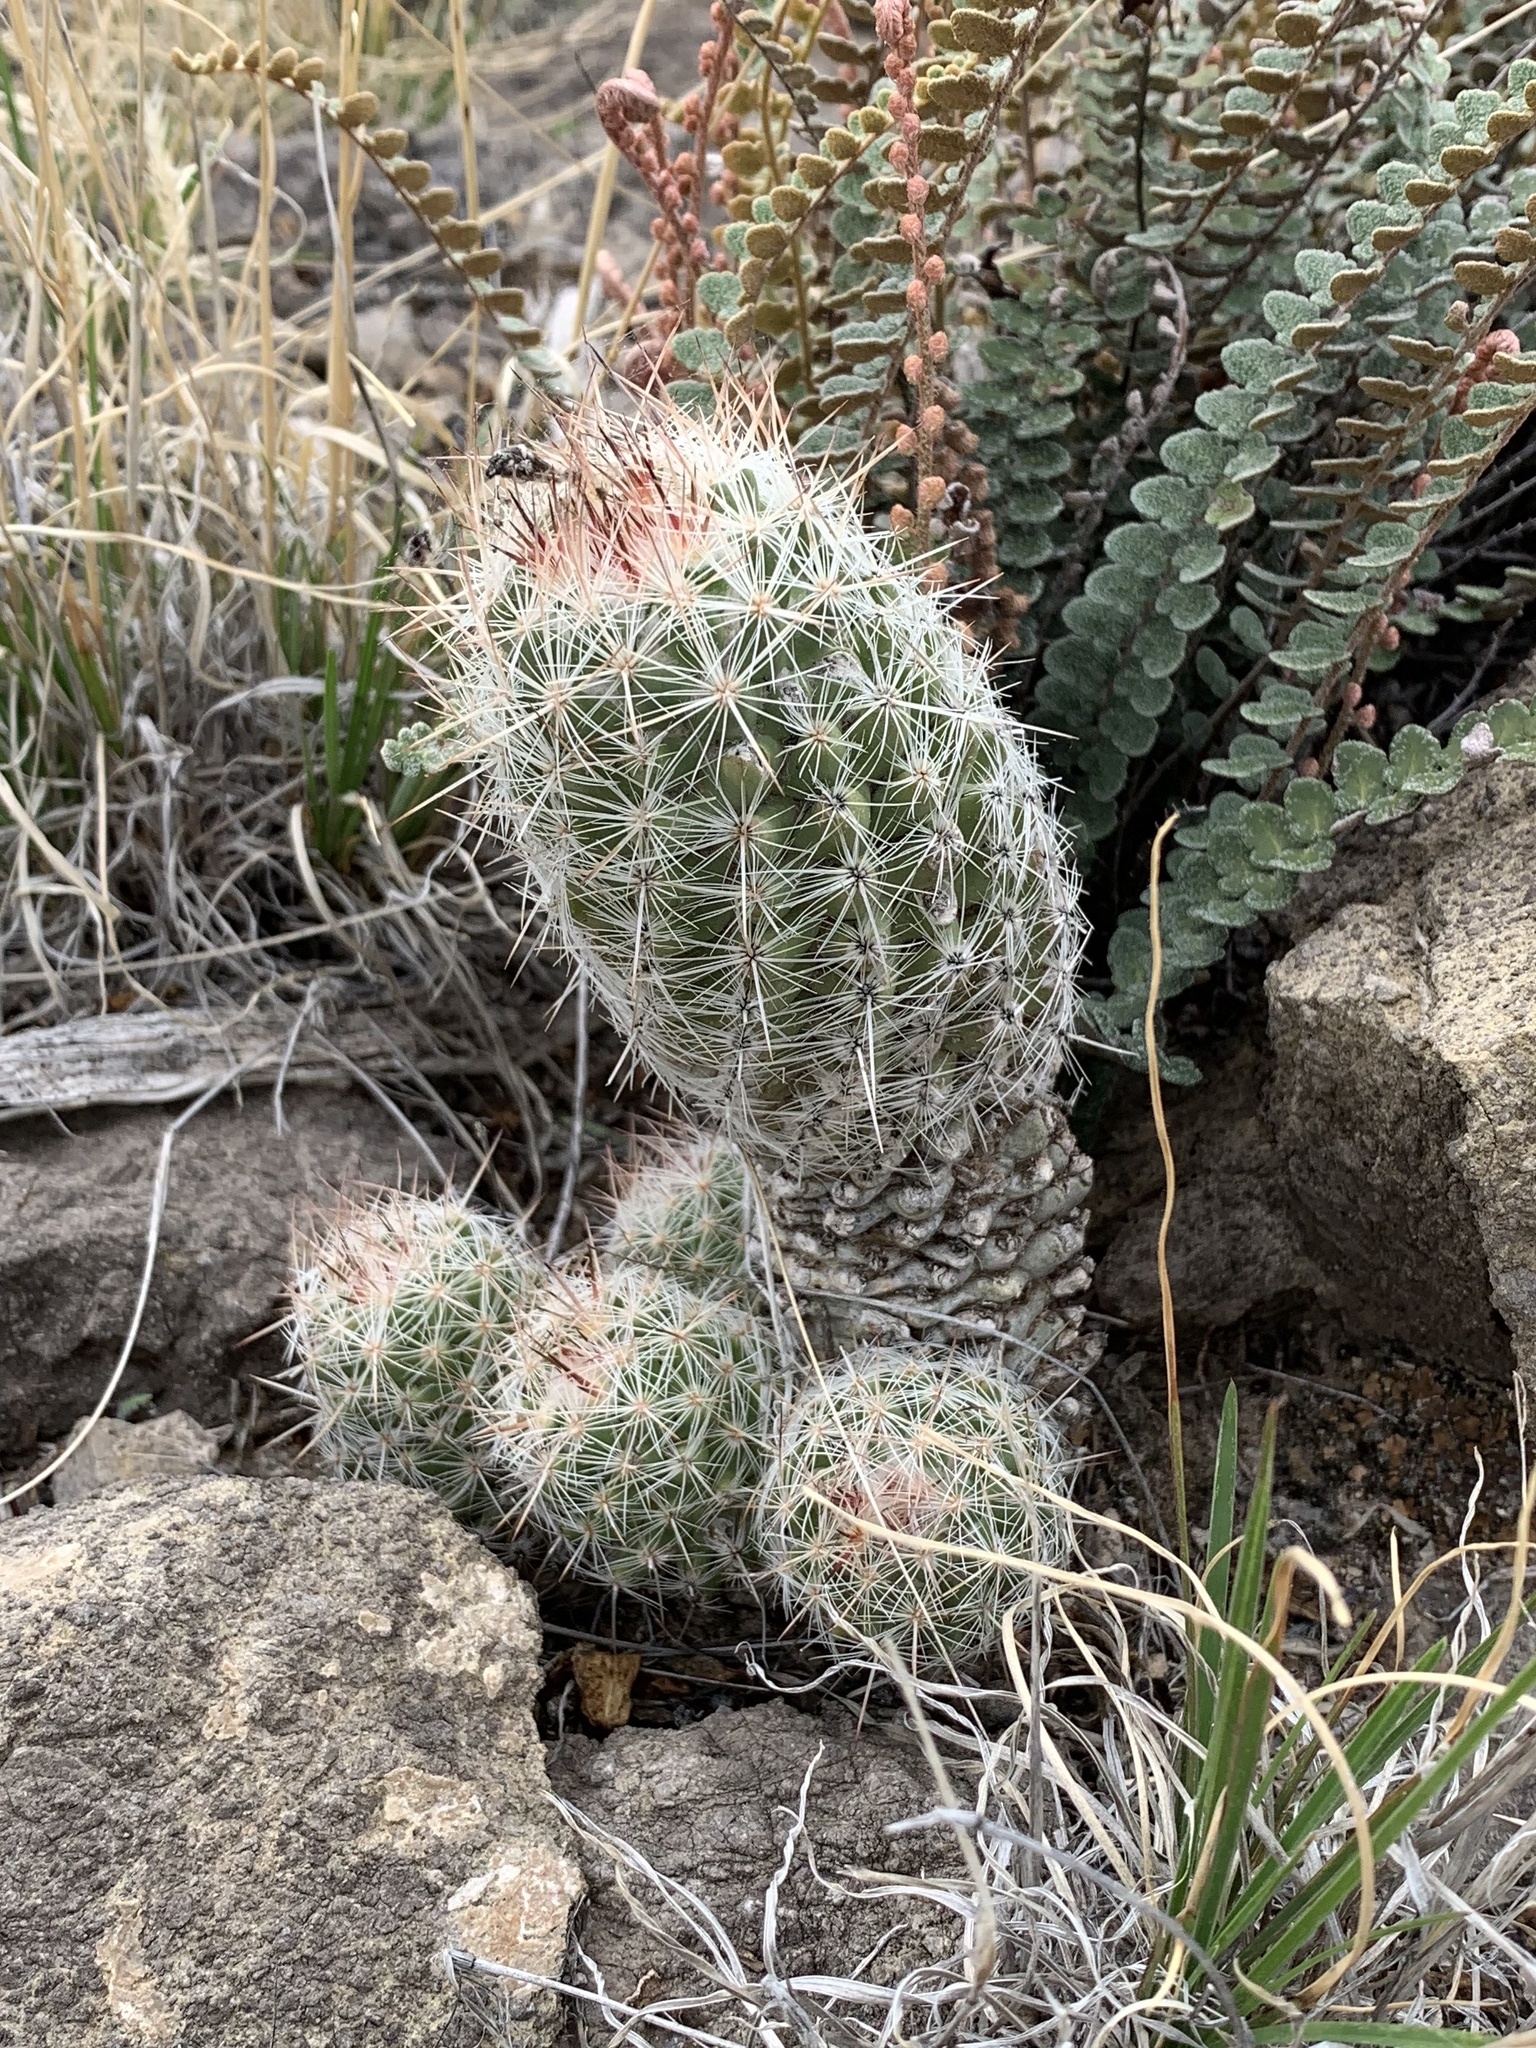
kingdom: Plantae
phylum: Tracheophyta
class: Magnoliopsida
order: Caryophyllales
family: Cactaceae
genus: Pelecyphora
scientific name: Pelecyphora tuberculosa
